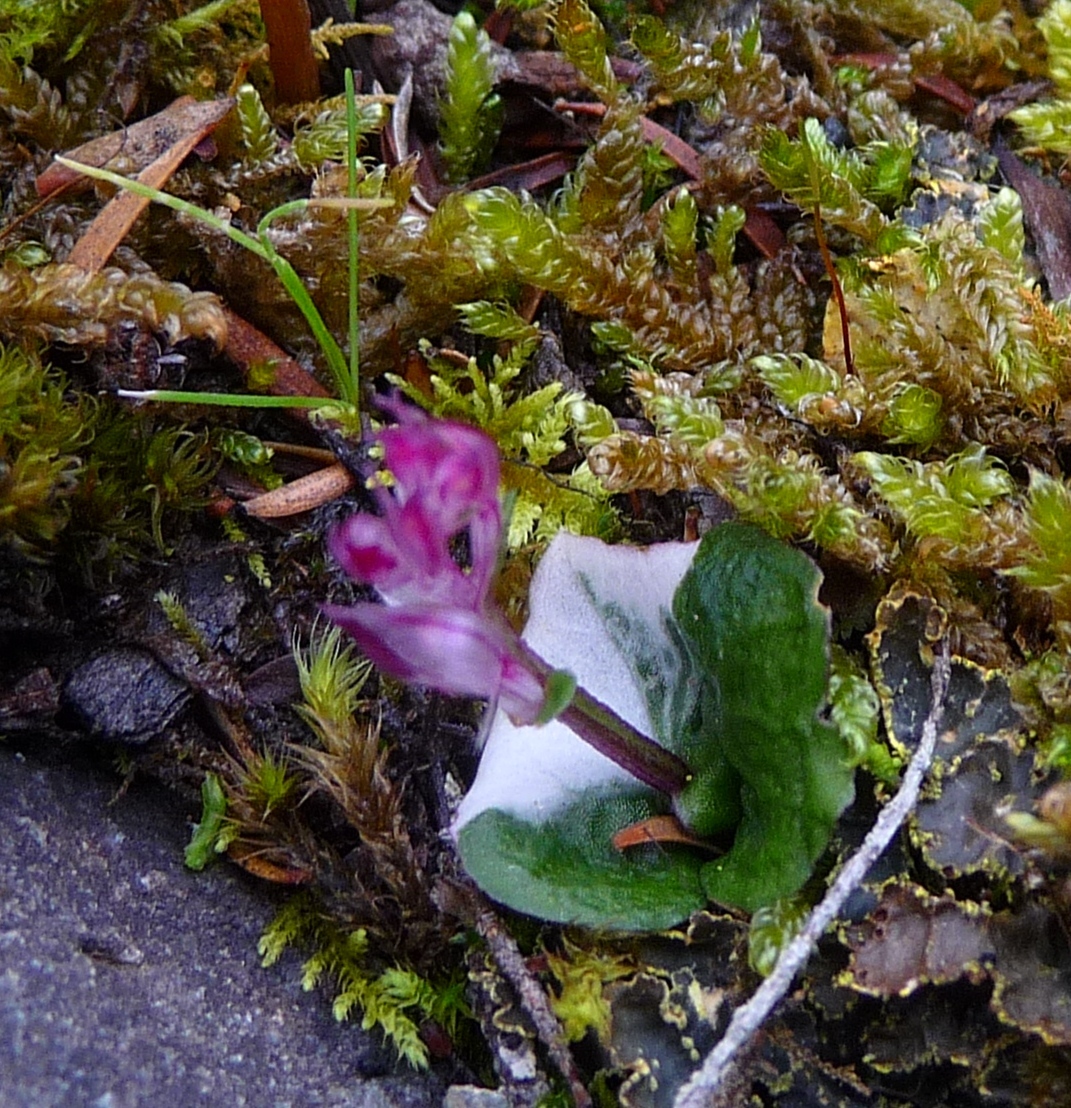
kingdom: Plantae
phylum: Tracheophyta
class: Liliopsida
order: Asparagales
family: Orchidaceae
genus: Acianthus
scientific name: Acianthus sinclairii
